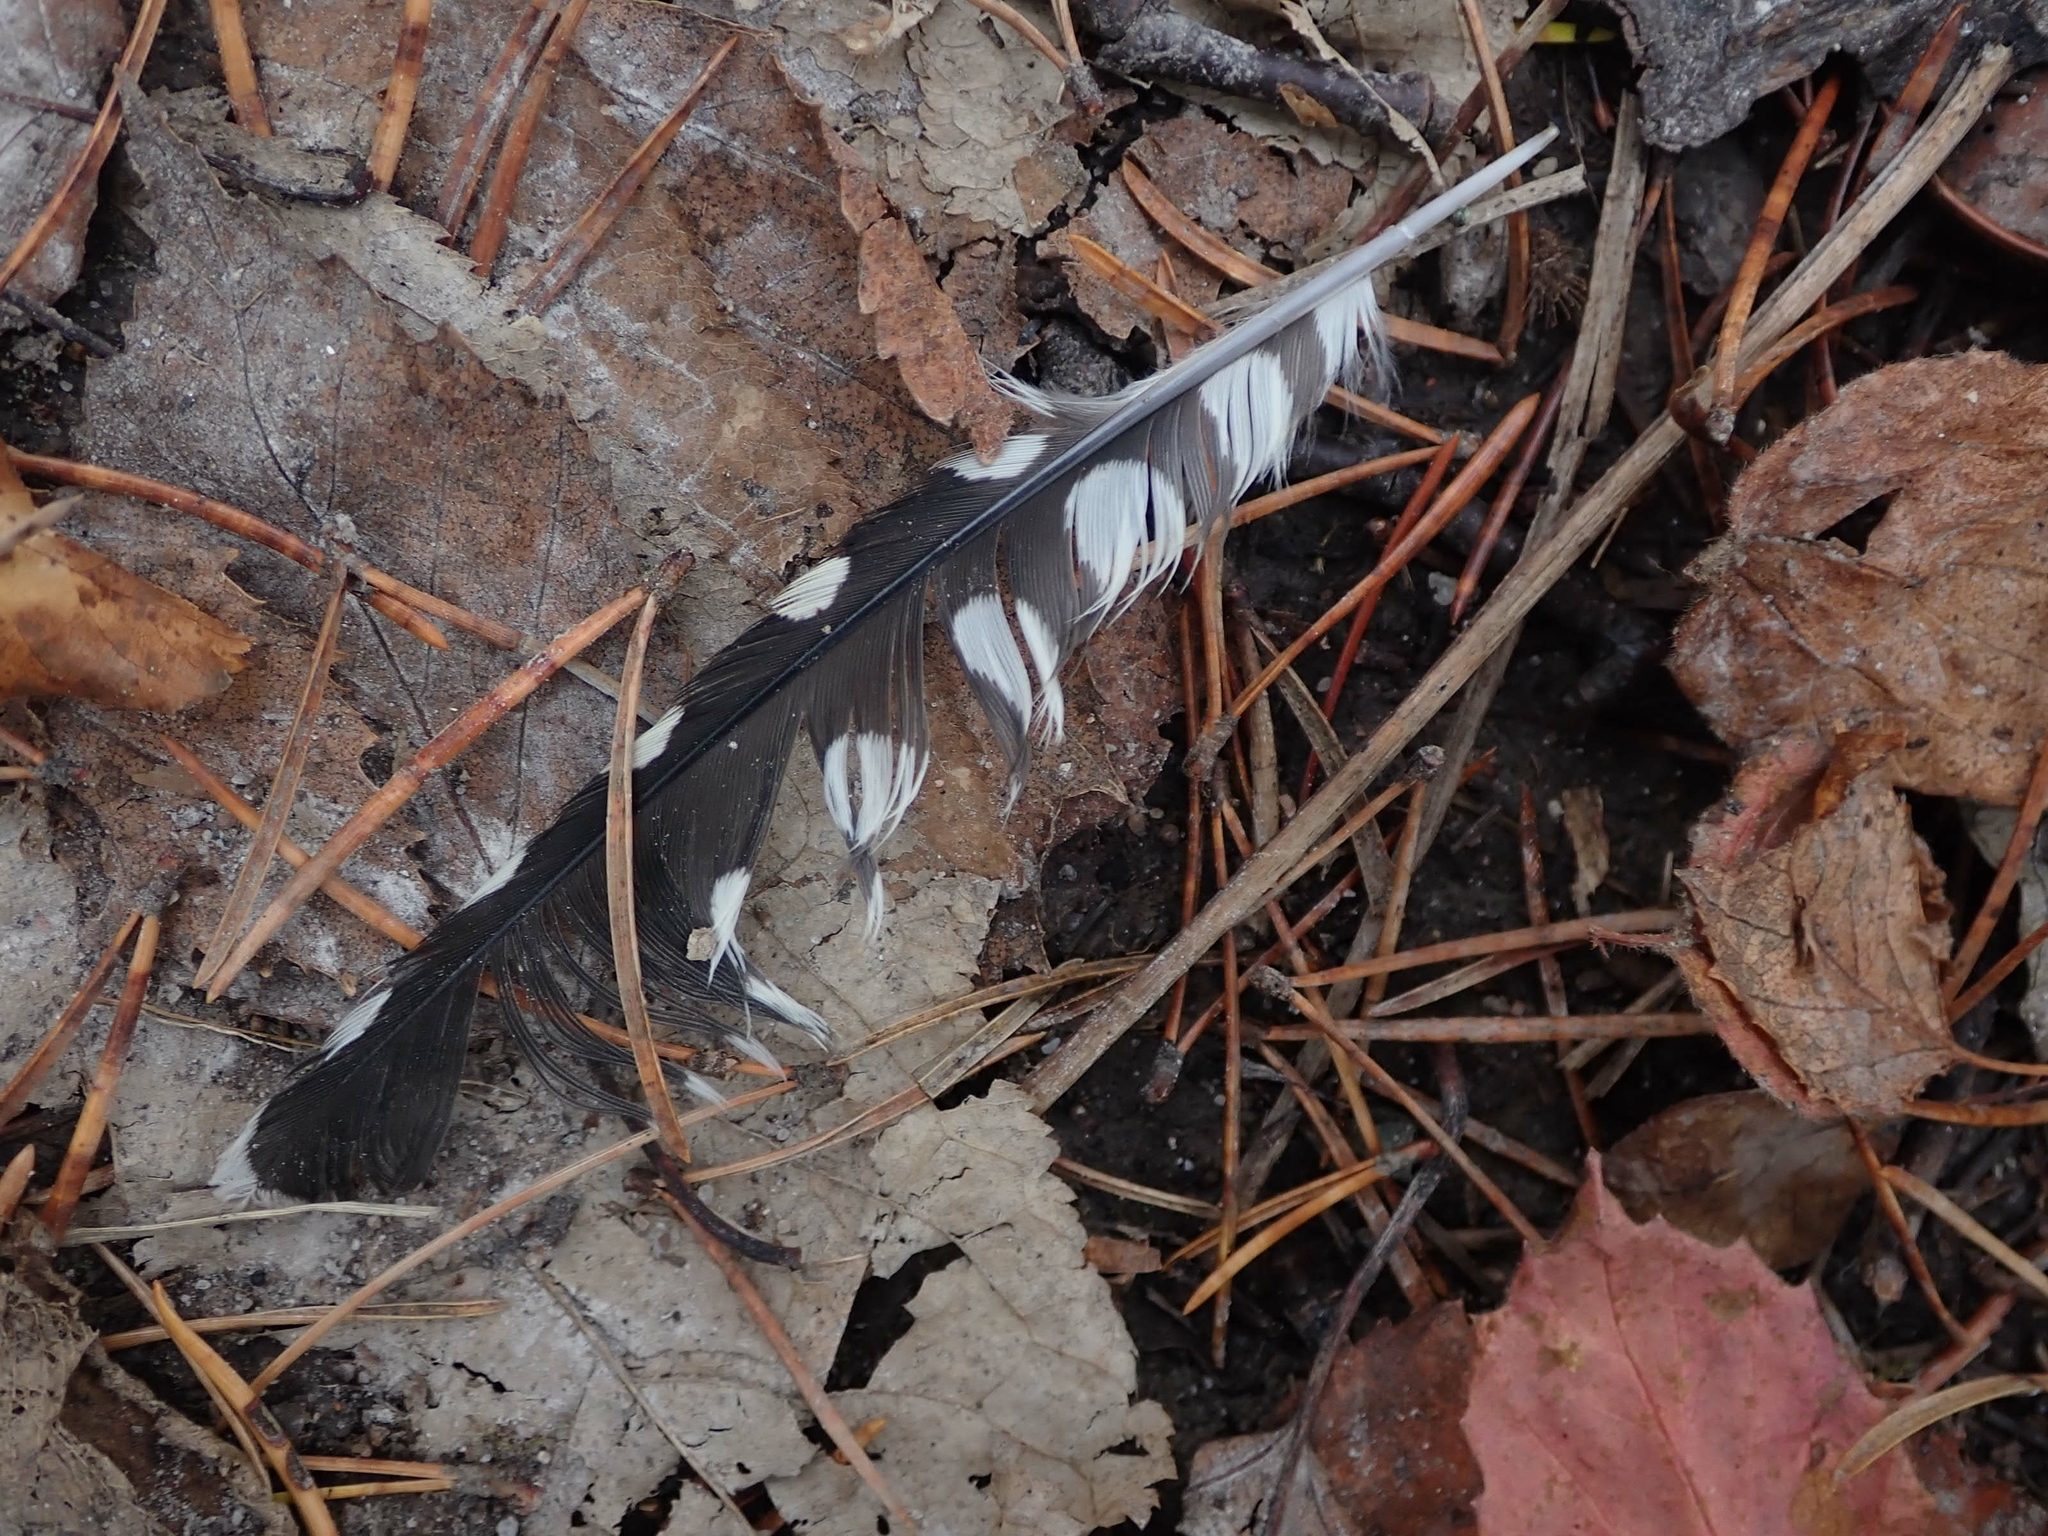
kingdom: Animalia
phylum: Chordata
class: Aves
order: Piciformes
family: Picidae
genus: Sphyrapicus
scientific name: Sphyrapicus varius
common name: Yellow-bellied sapsucker
